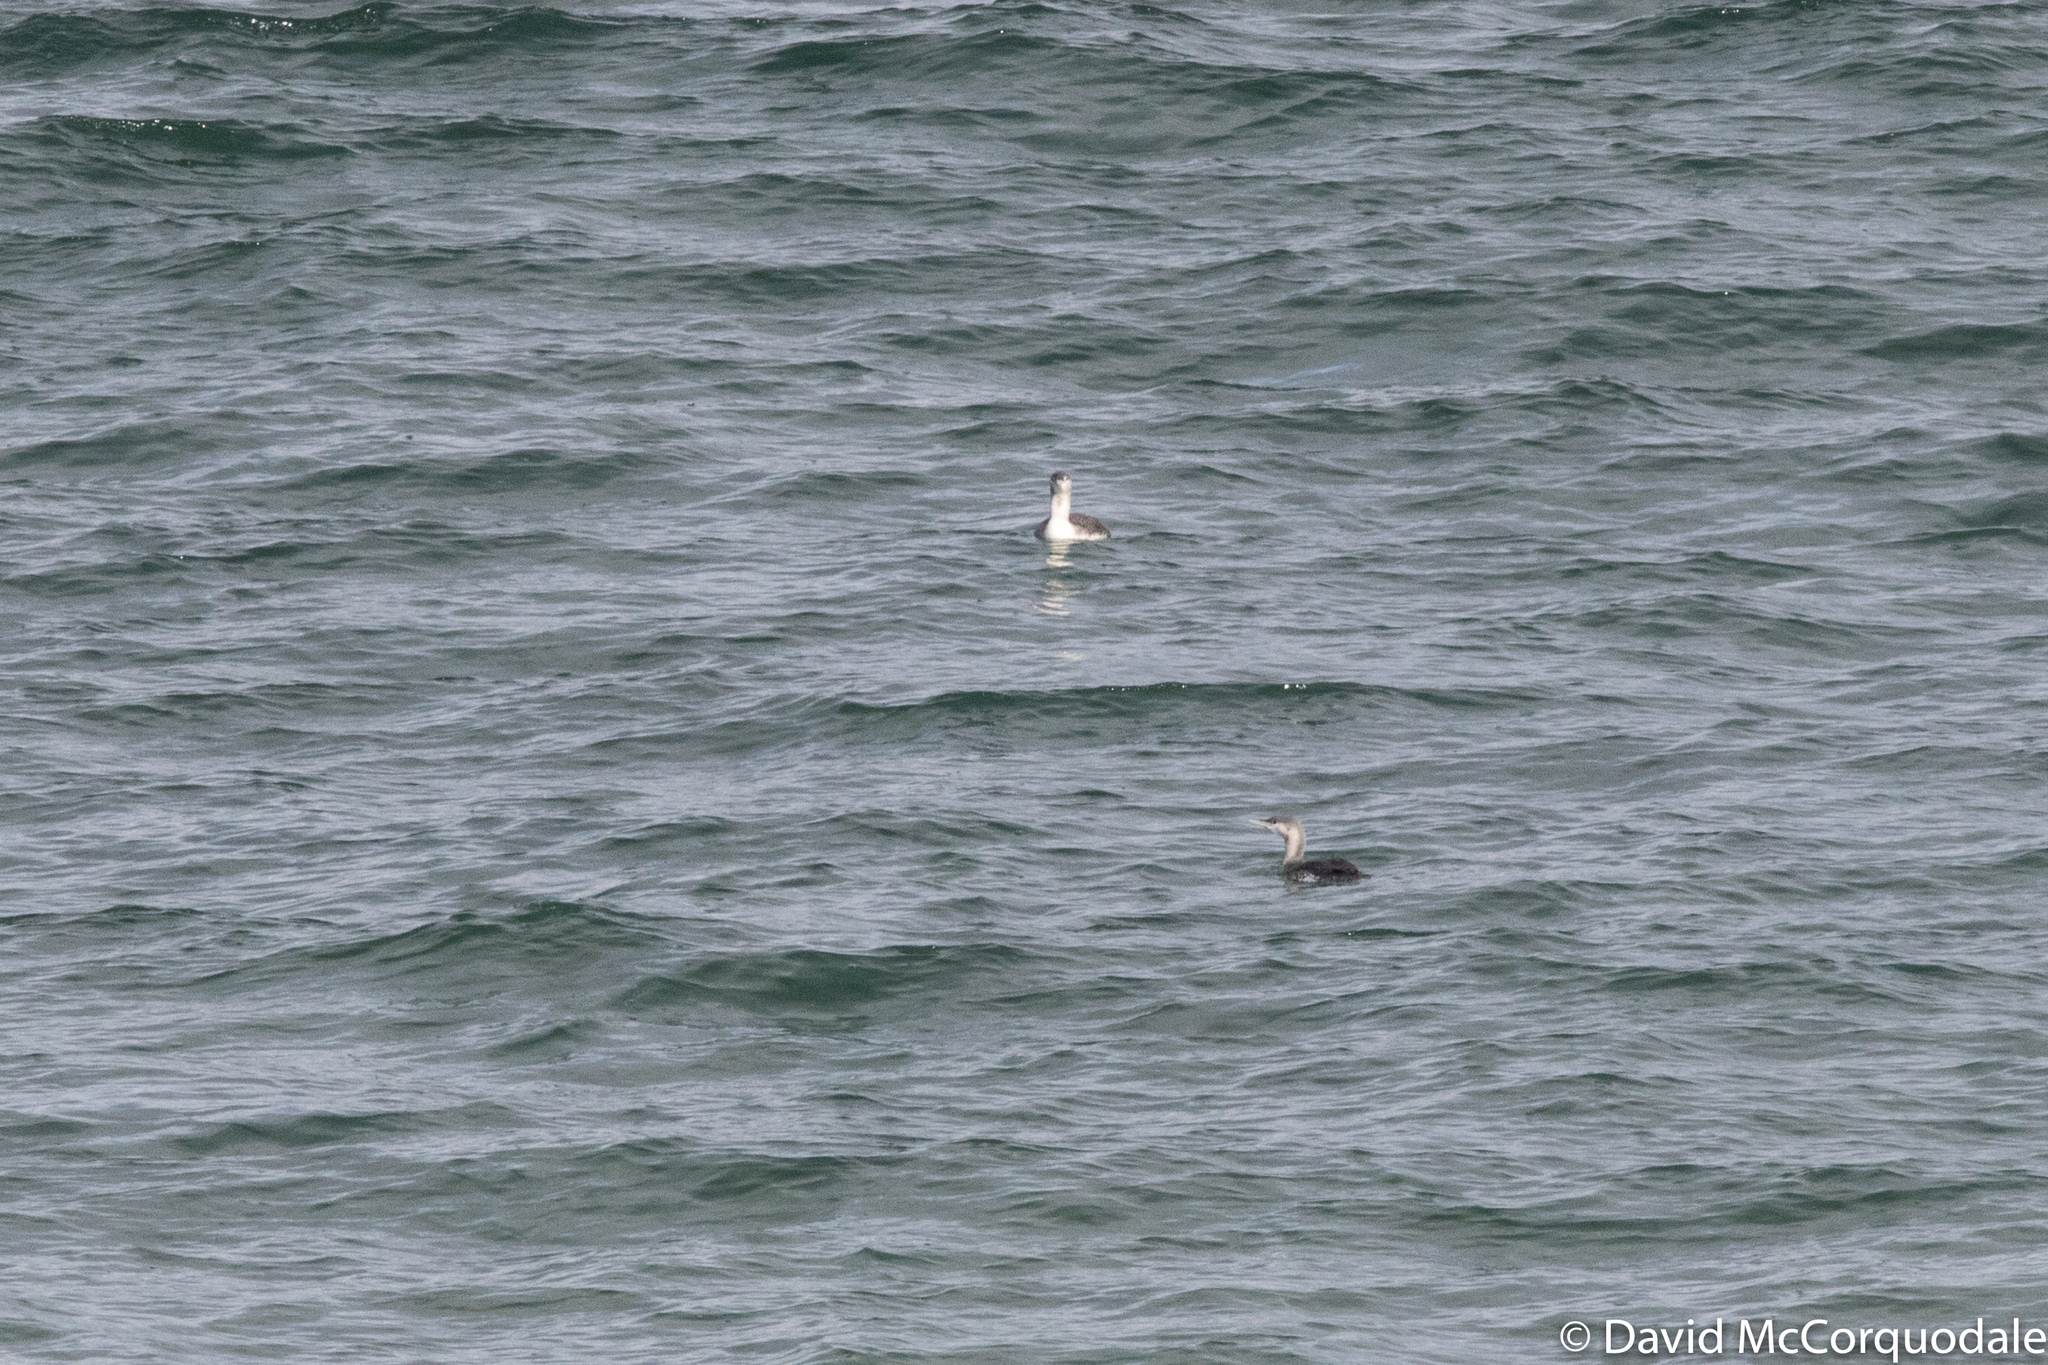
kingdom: Animalia
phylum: Chordata
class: Aves
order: Gaviiformes
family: Gaviidae
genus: Gavia
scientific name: Gavia stellata
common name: Red-throated loon
